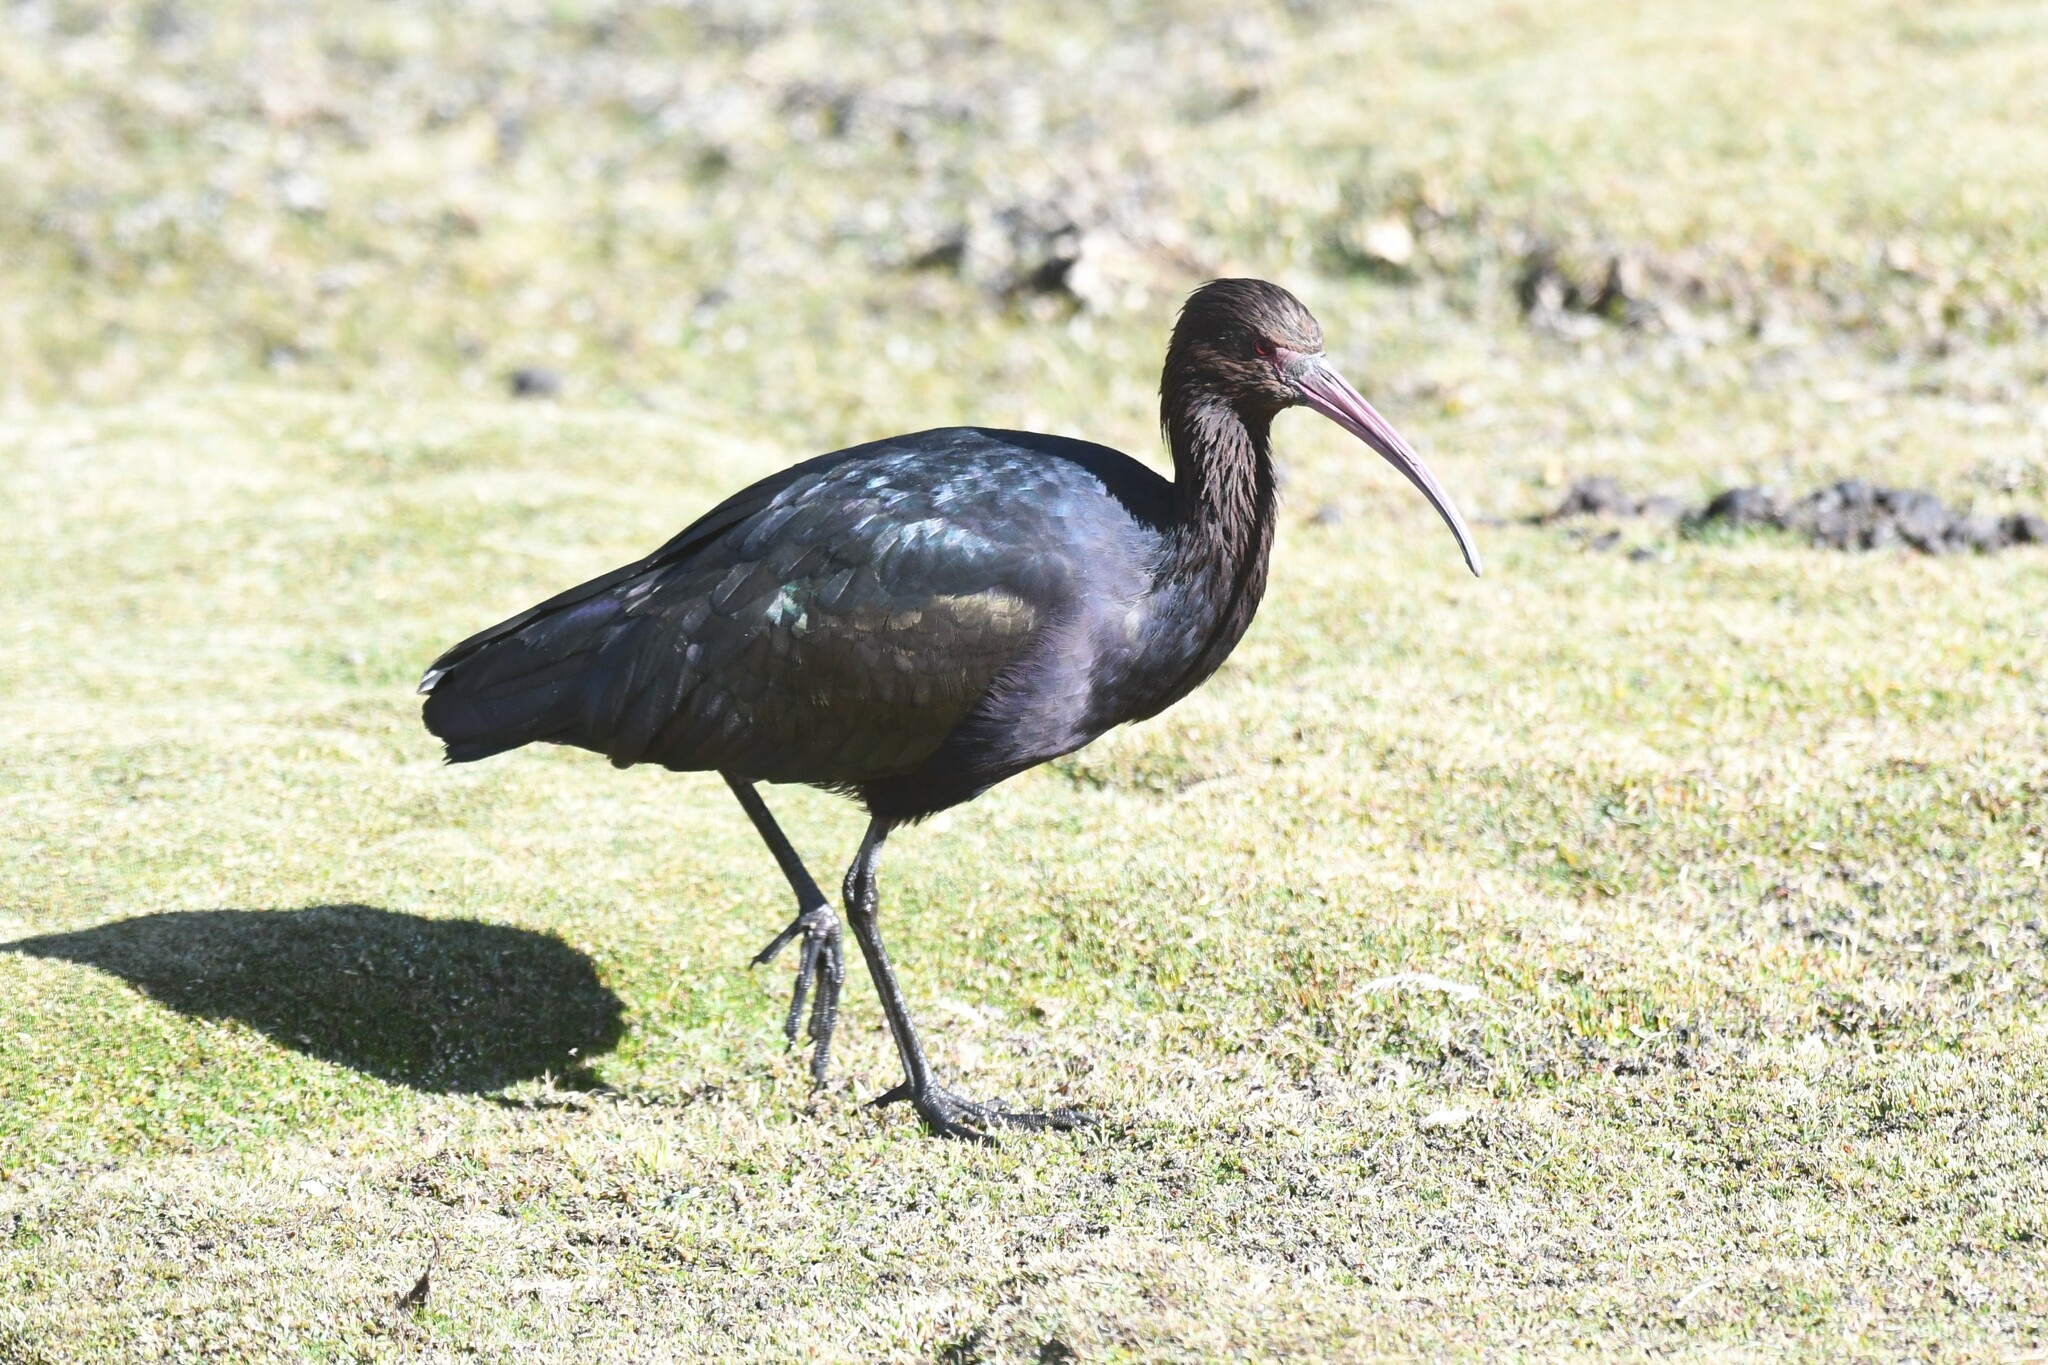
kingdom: Animalia
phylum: Chordata
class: Aves
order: Pelecaniformes
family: Threskiornithidae
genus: Plegadis
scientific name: Plegadis ridgwayi
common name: Puna ibis
